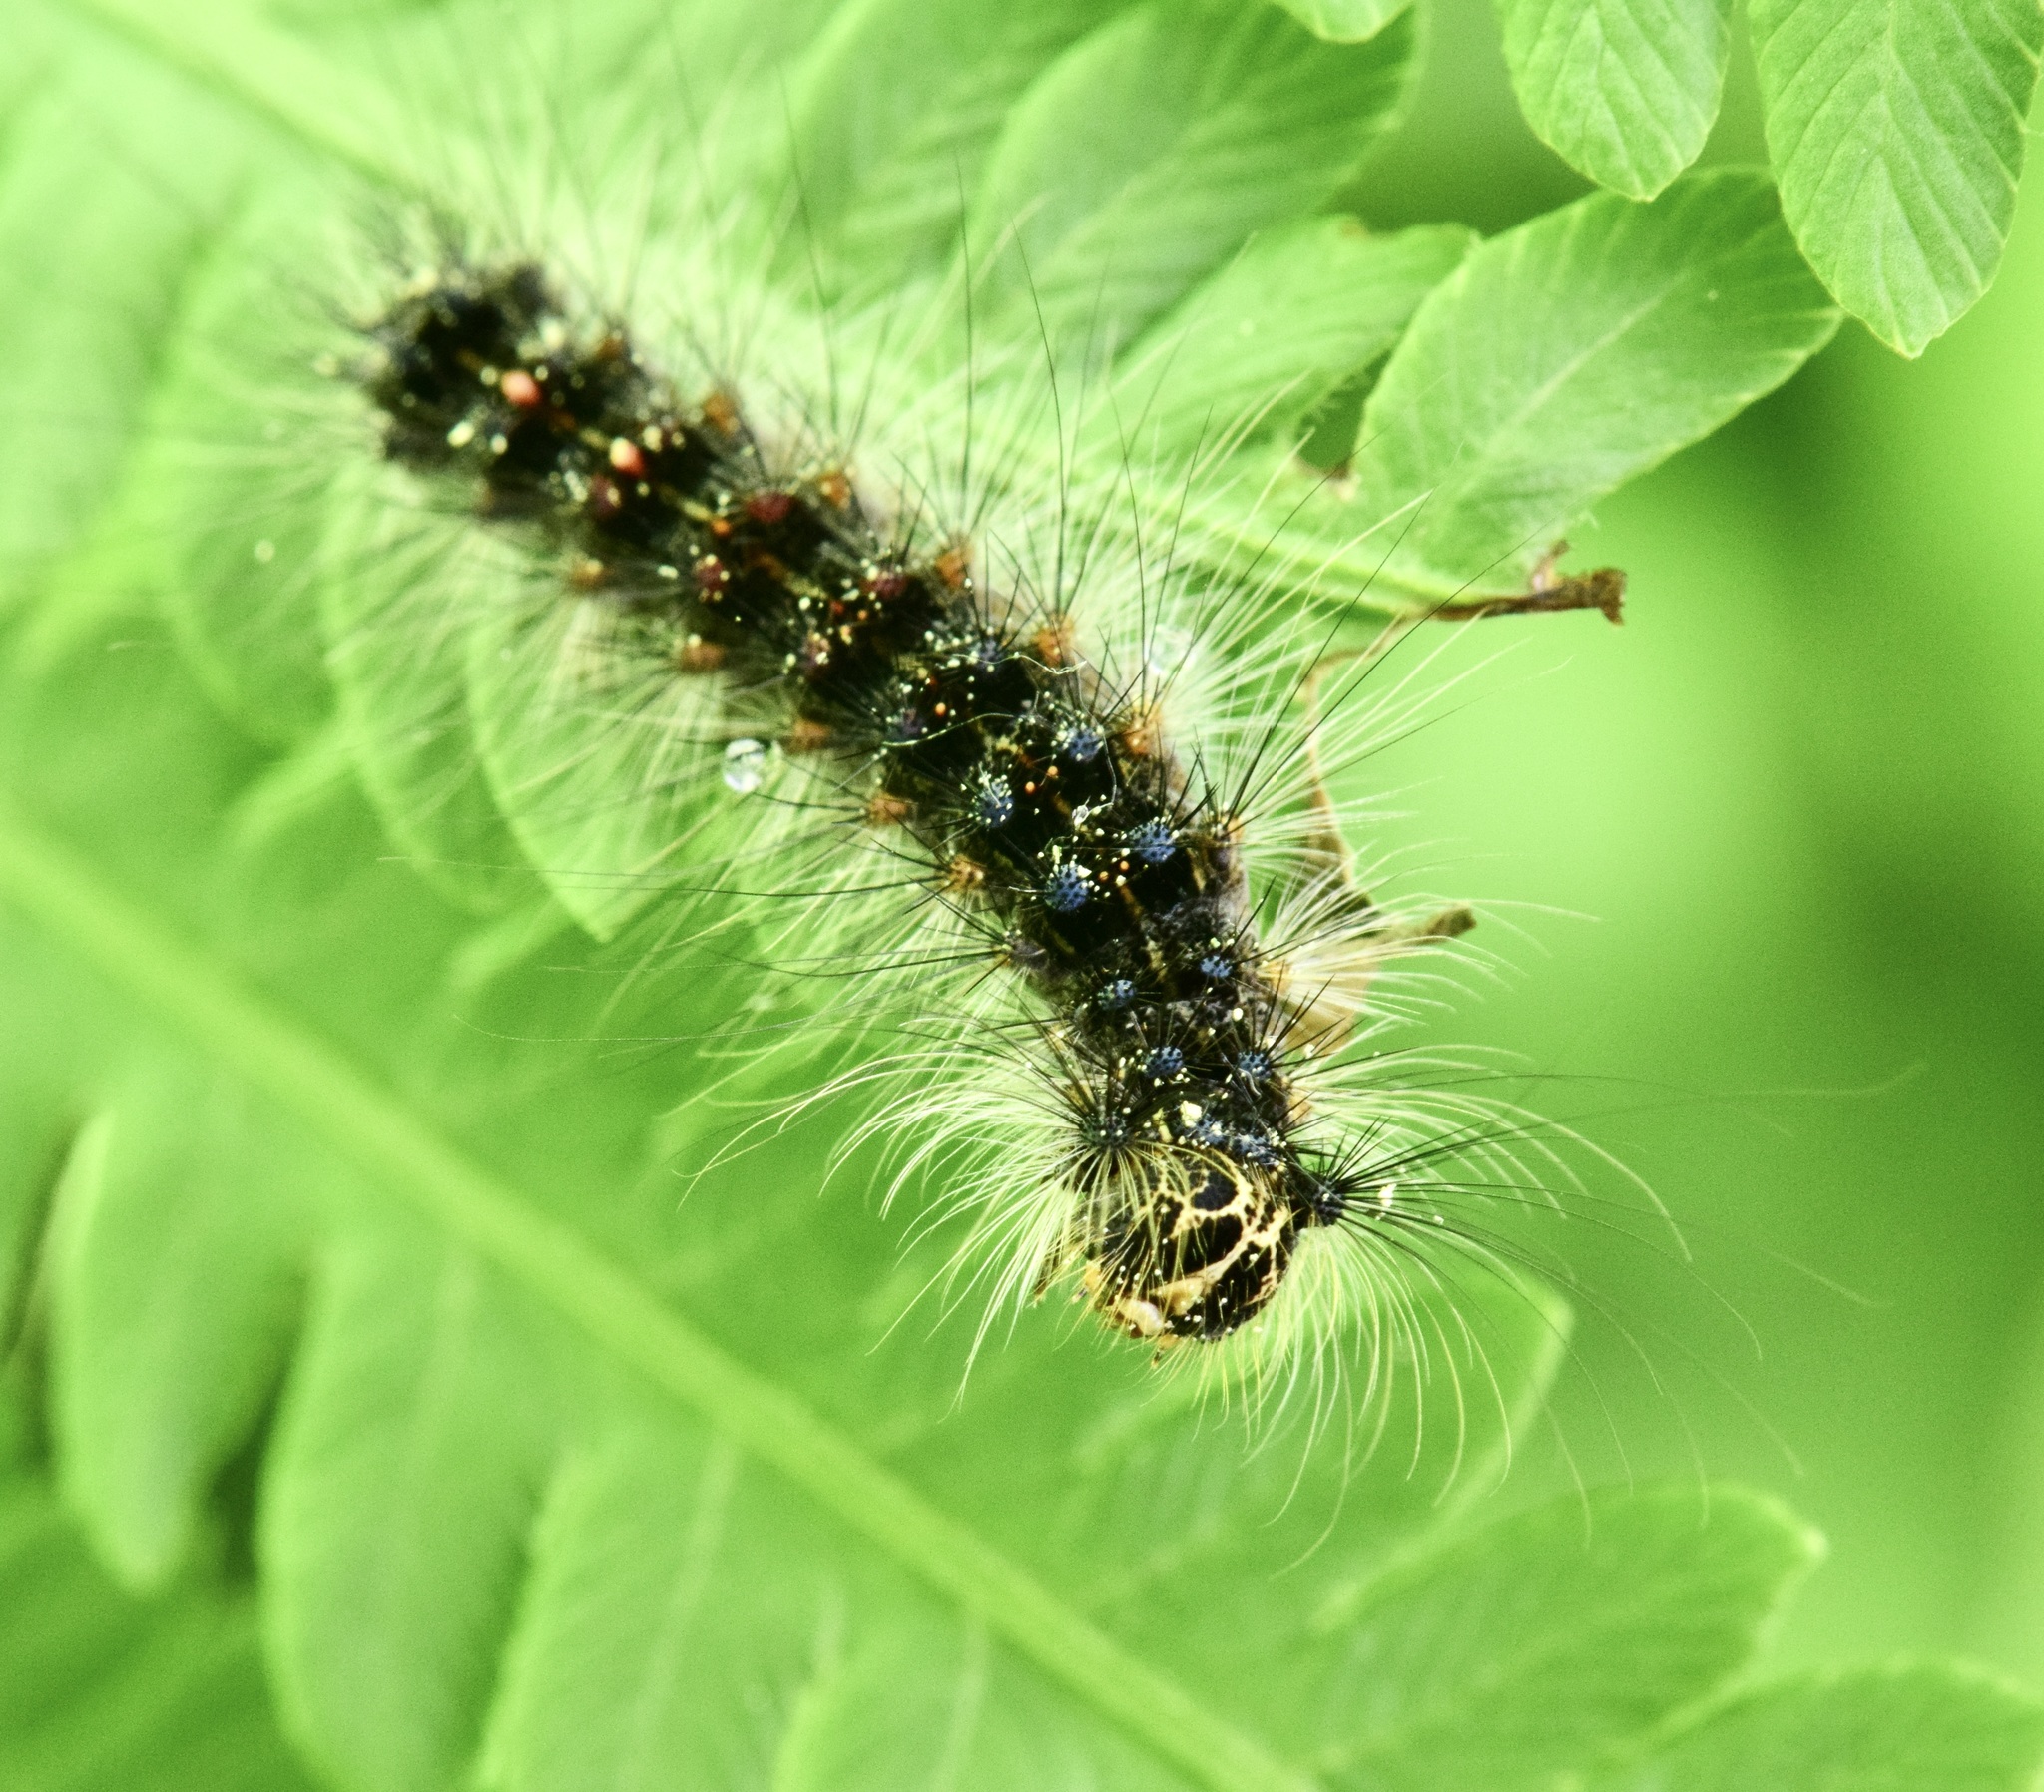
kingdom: Animalia
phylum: Arthropoda
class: Insecta
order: Lepidoptera
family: Erebidae
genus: Lymantria
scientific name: Lymantria dispar
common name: Gypsy moth
